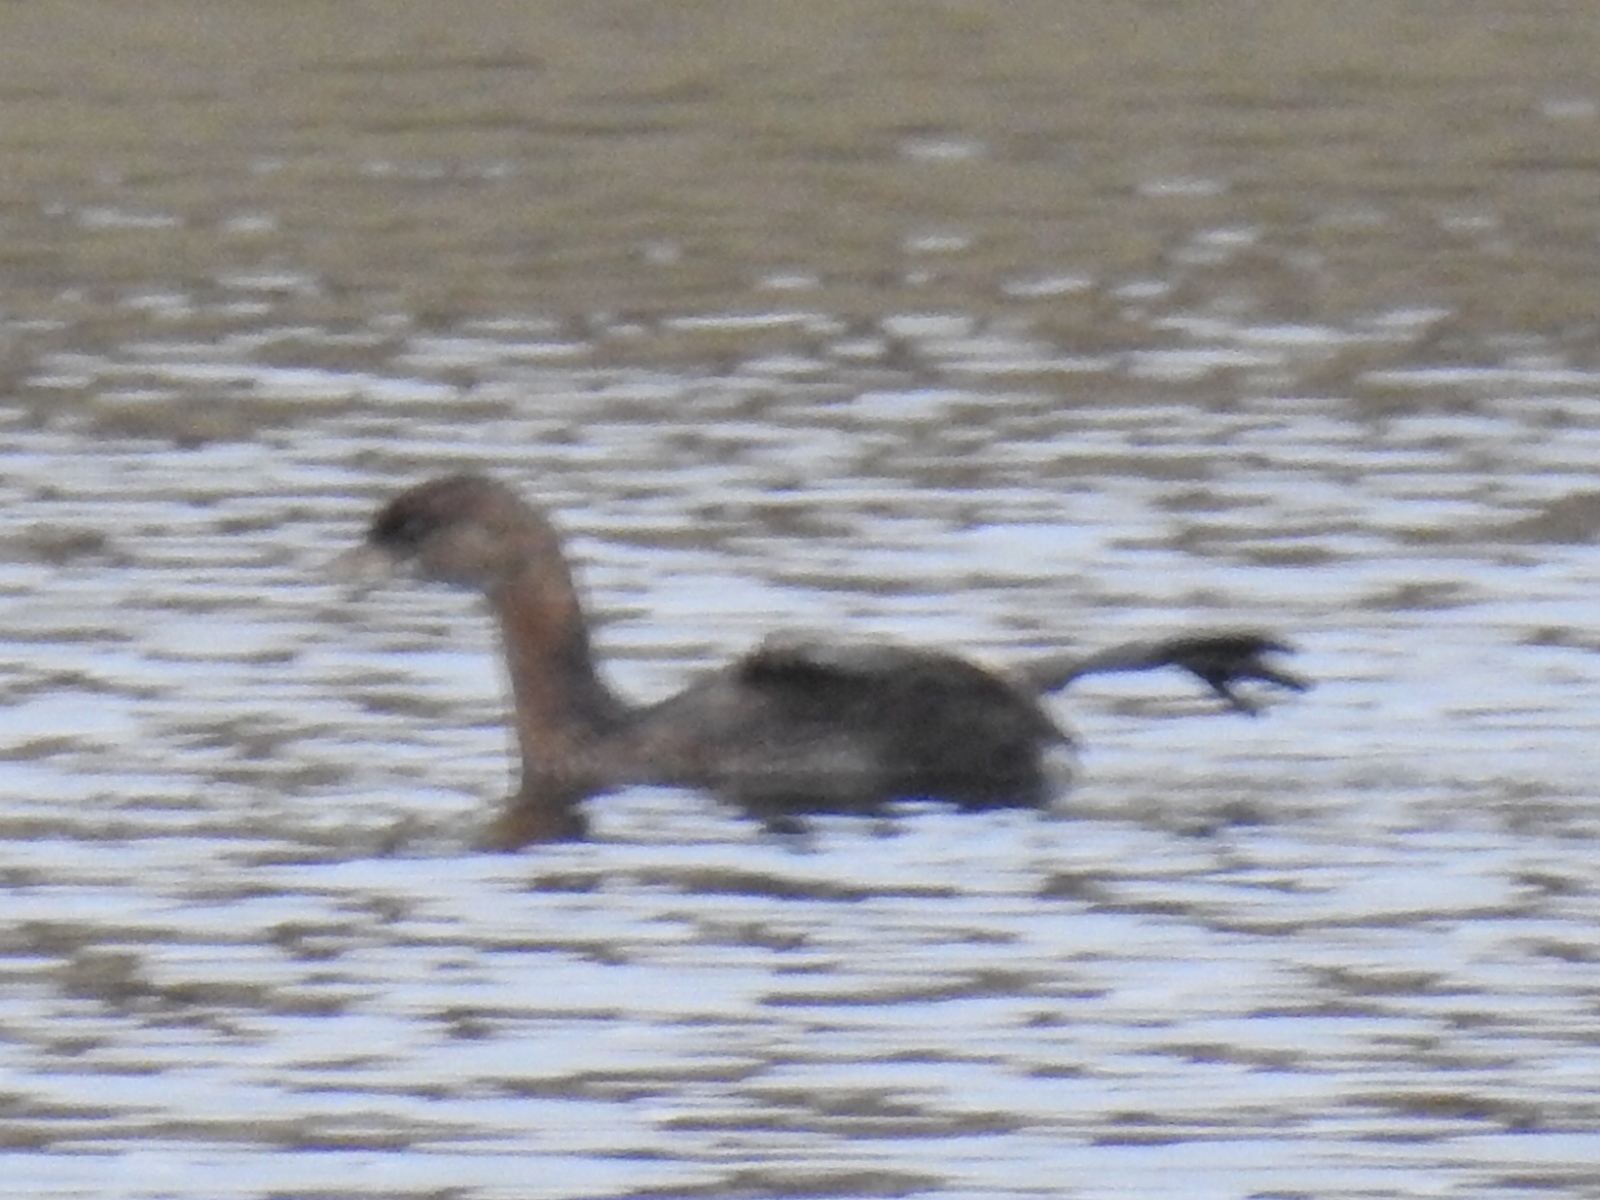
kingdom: Animalia
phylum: Chordata
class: Aves
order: Podicipediformes
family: Podicipedidae
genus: Podilymbus
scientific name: Podilymbus podiceps
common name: Pied-billed grebe
